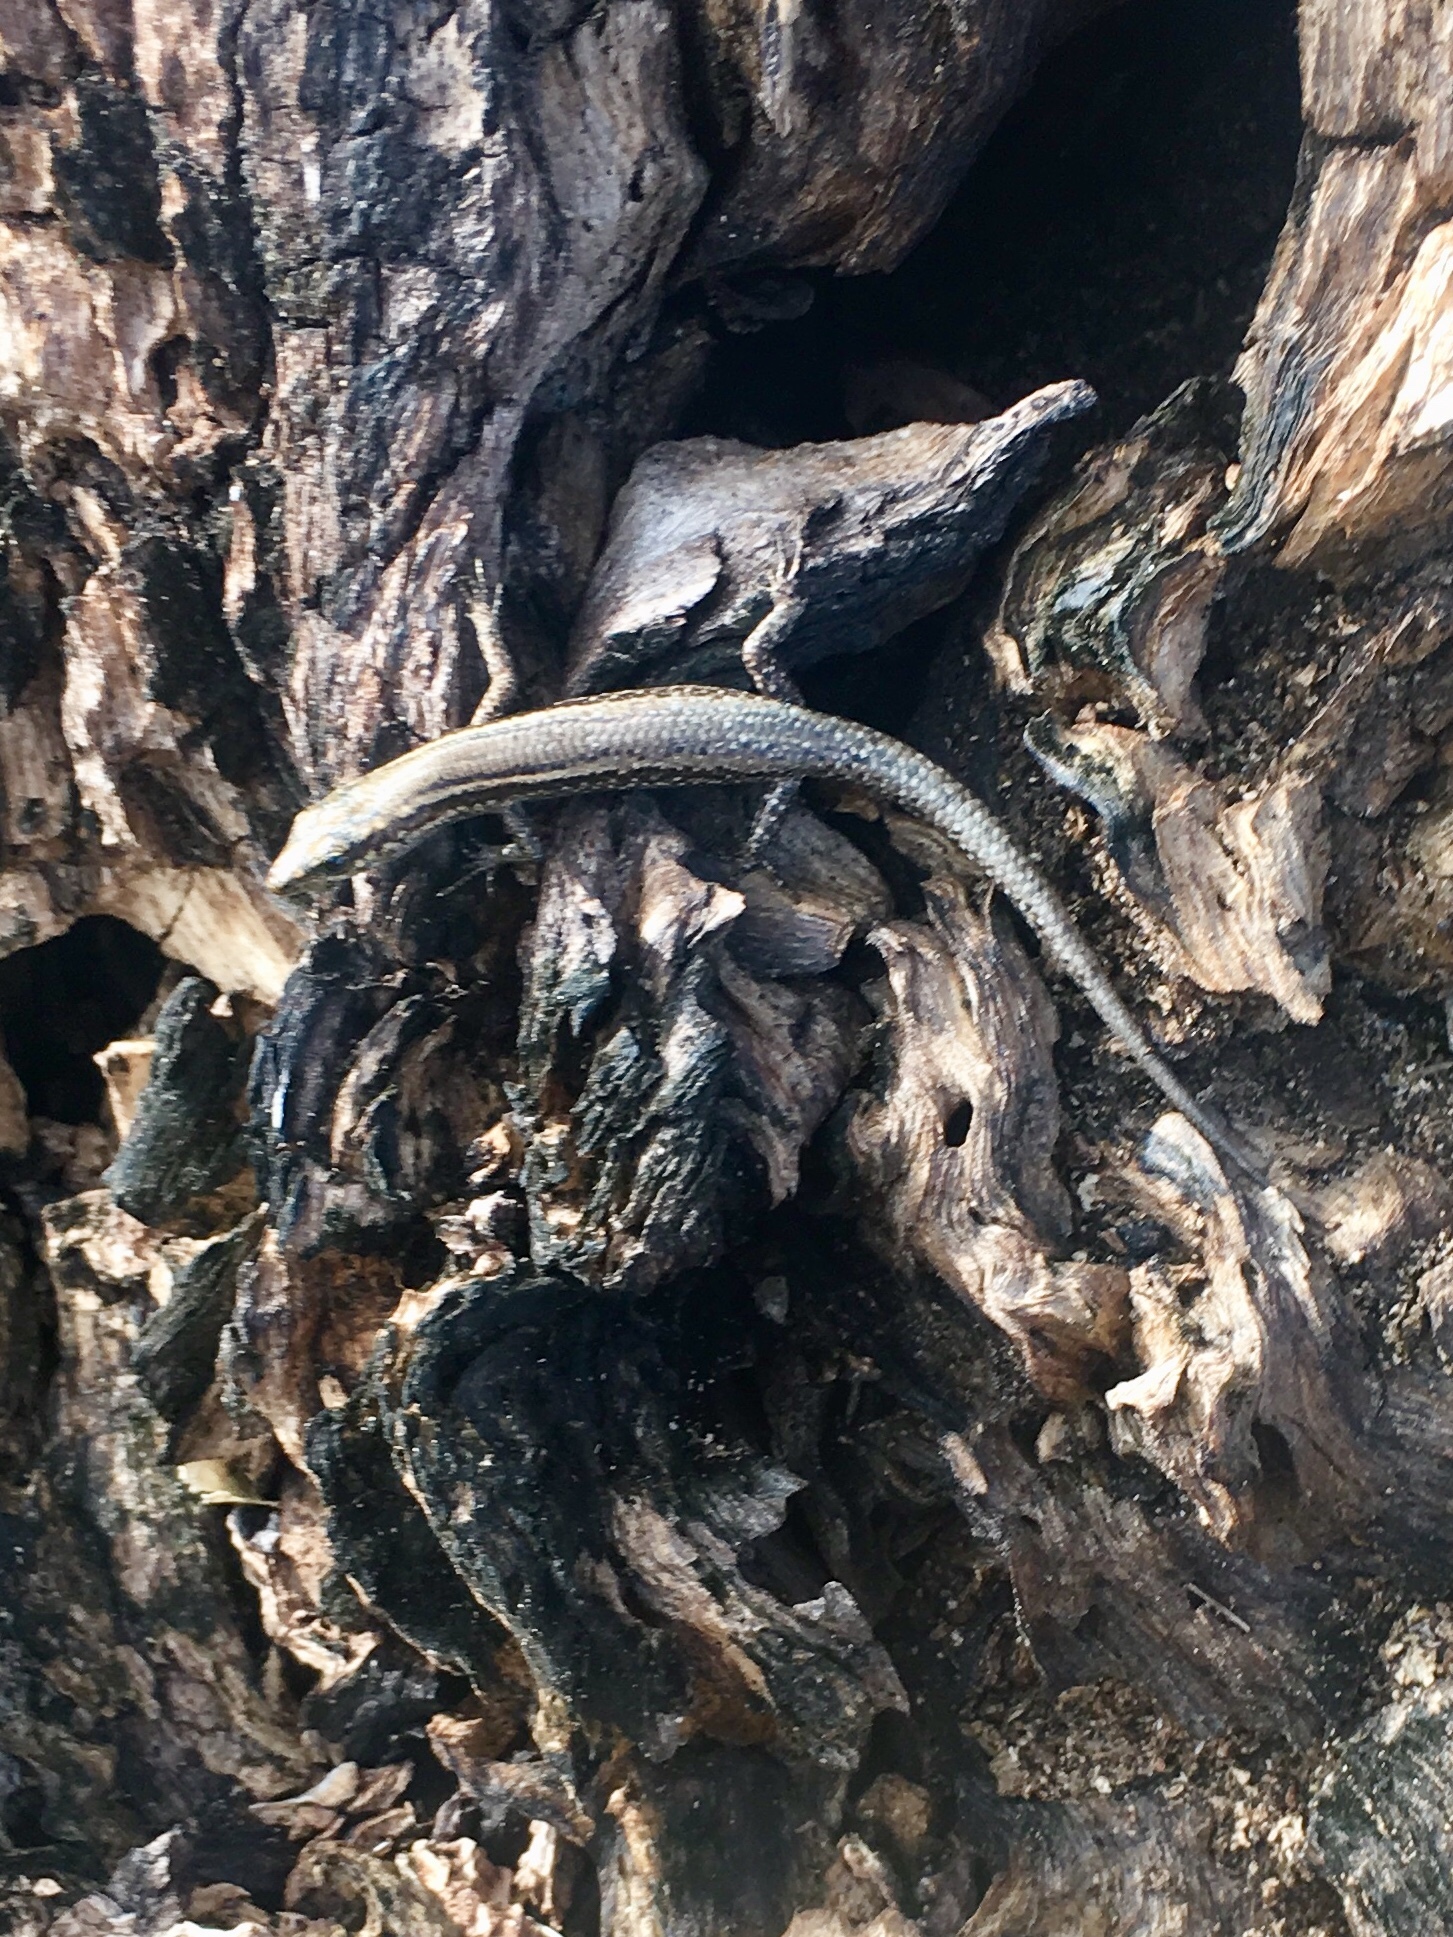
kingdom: Animalia
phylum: Chordata
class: Squamata
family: Scincidae
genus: Cryptoblepharus
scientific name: Cryptoblepharus eximius
